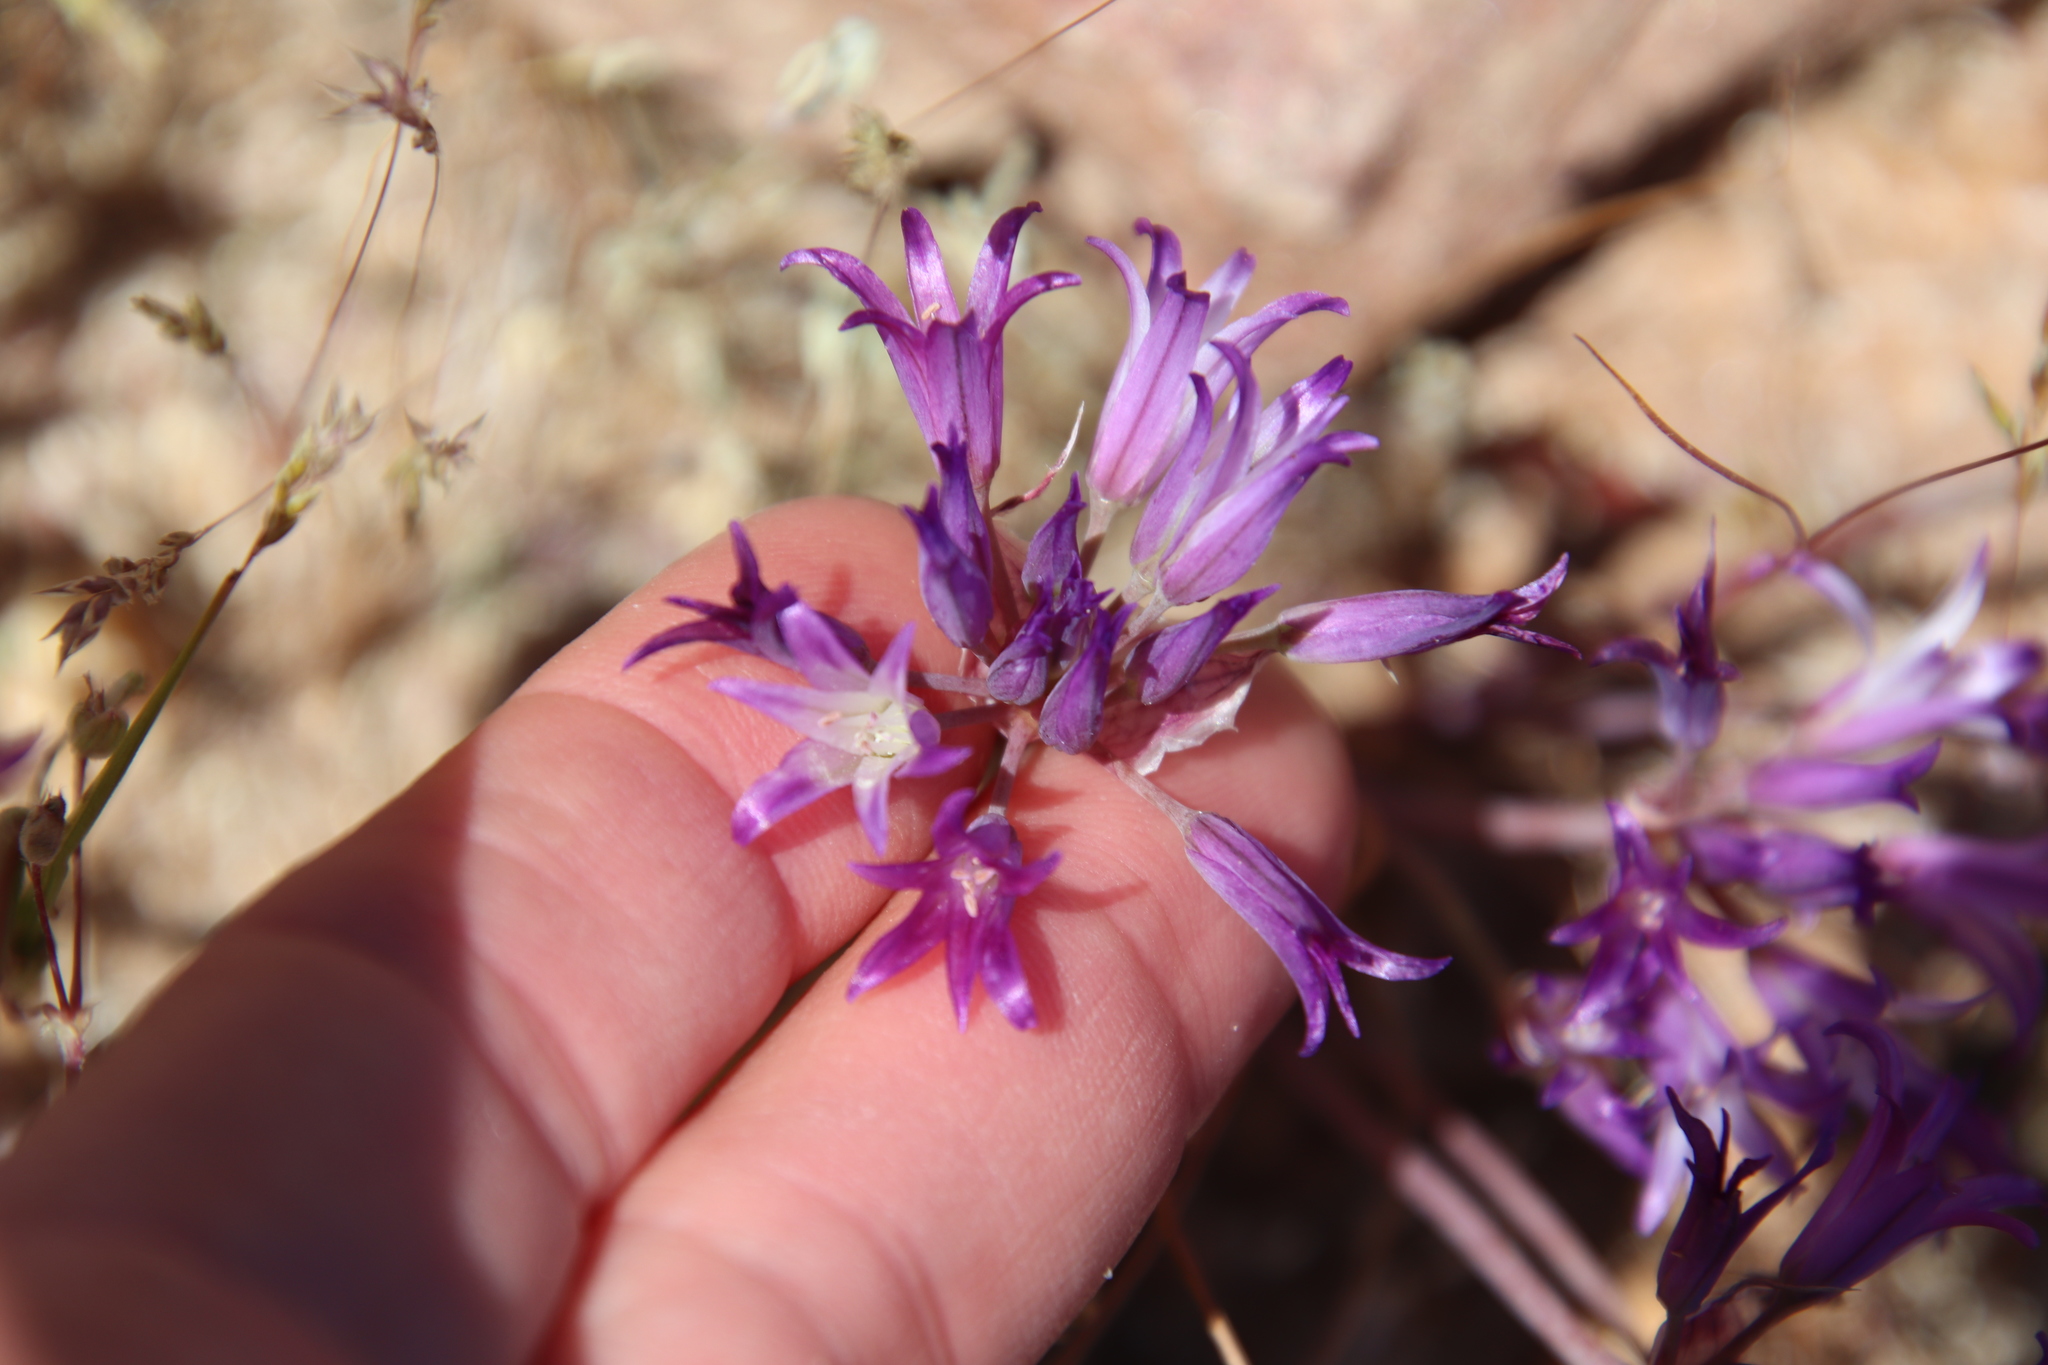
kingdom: Plantae
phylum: Tracheophyta
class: Liliopsida
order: Asparagales
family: Amaryllidaceae
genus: Allium
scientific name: Allium fimbriatum
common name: Fringed onion
